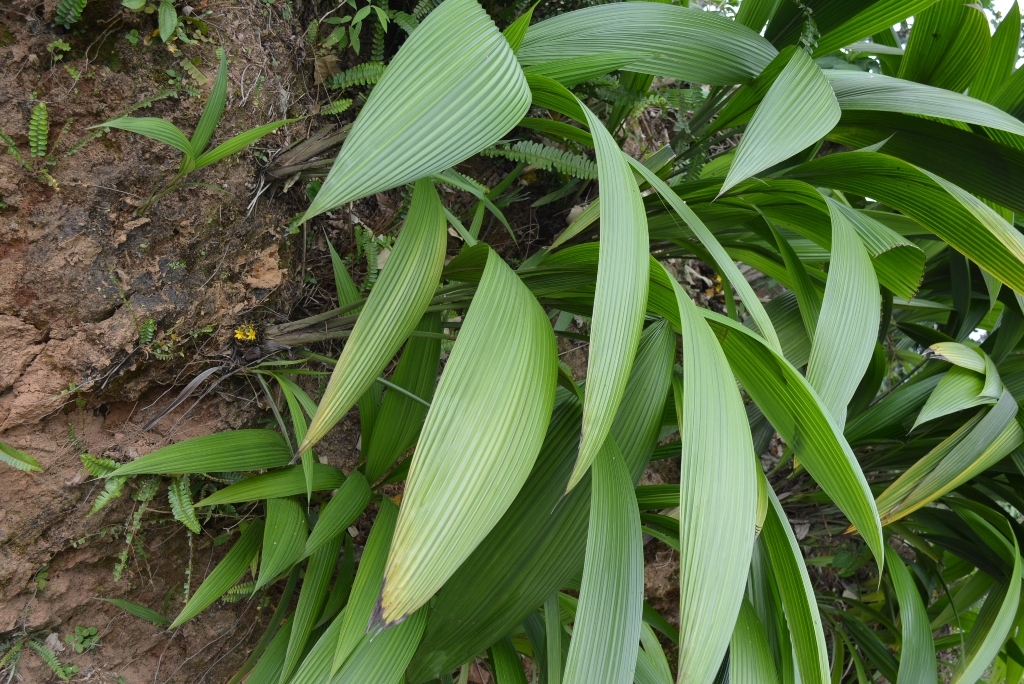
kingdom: Plantae
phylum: Tracheophyta
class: Liliopsida
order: Asparagales
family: Hypoxidaceae
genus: Curculigo
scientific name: Curculigo capitulata
